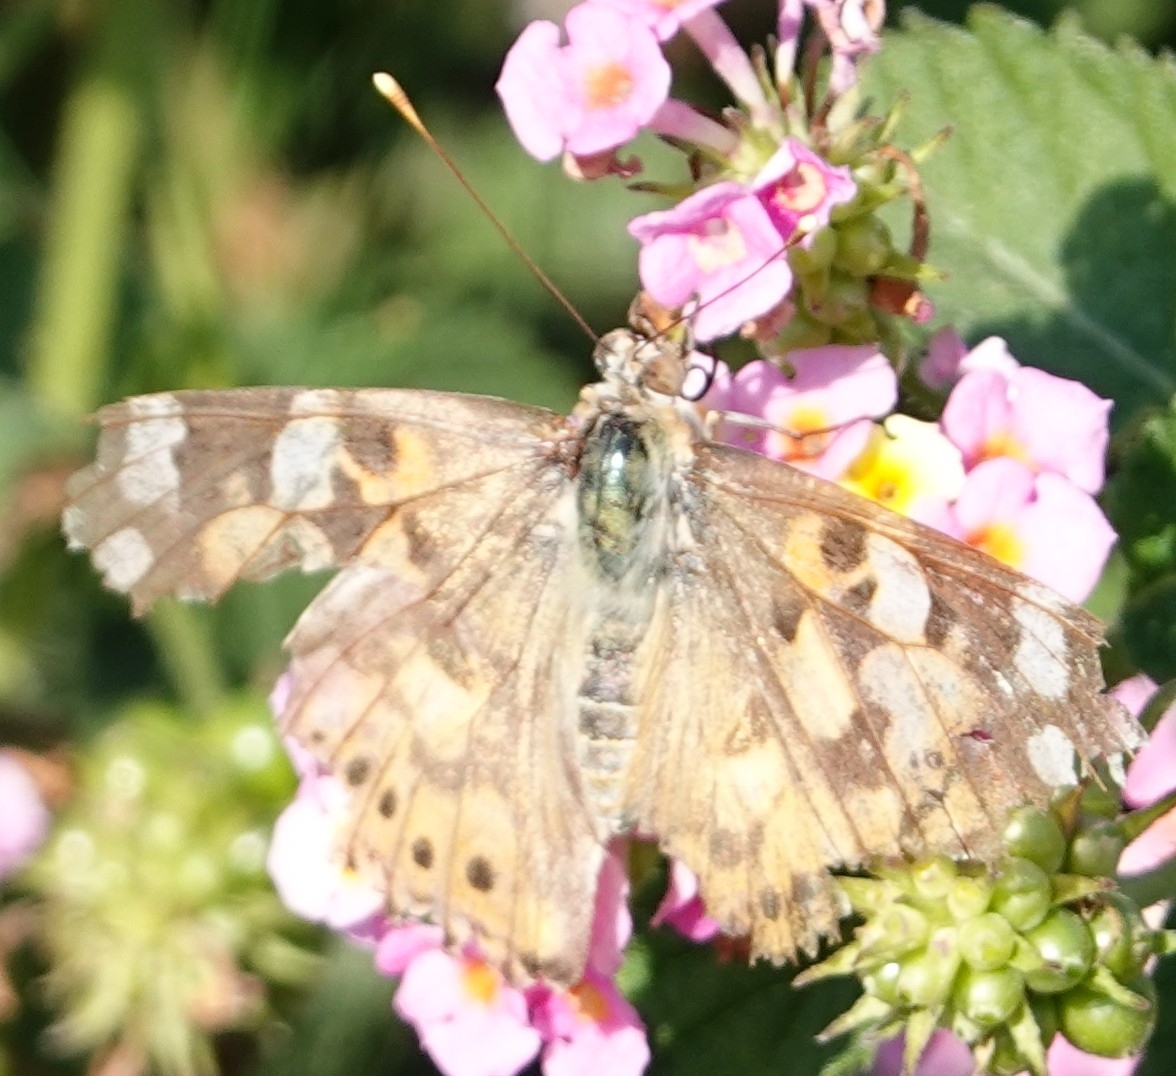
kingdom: Animalia
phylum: Arthropoda
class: Insecta
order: Lepidoptera
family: Nymphalidae
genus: Vanessa
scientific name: Vanessa cardui
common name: Painted lady
